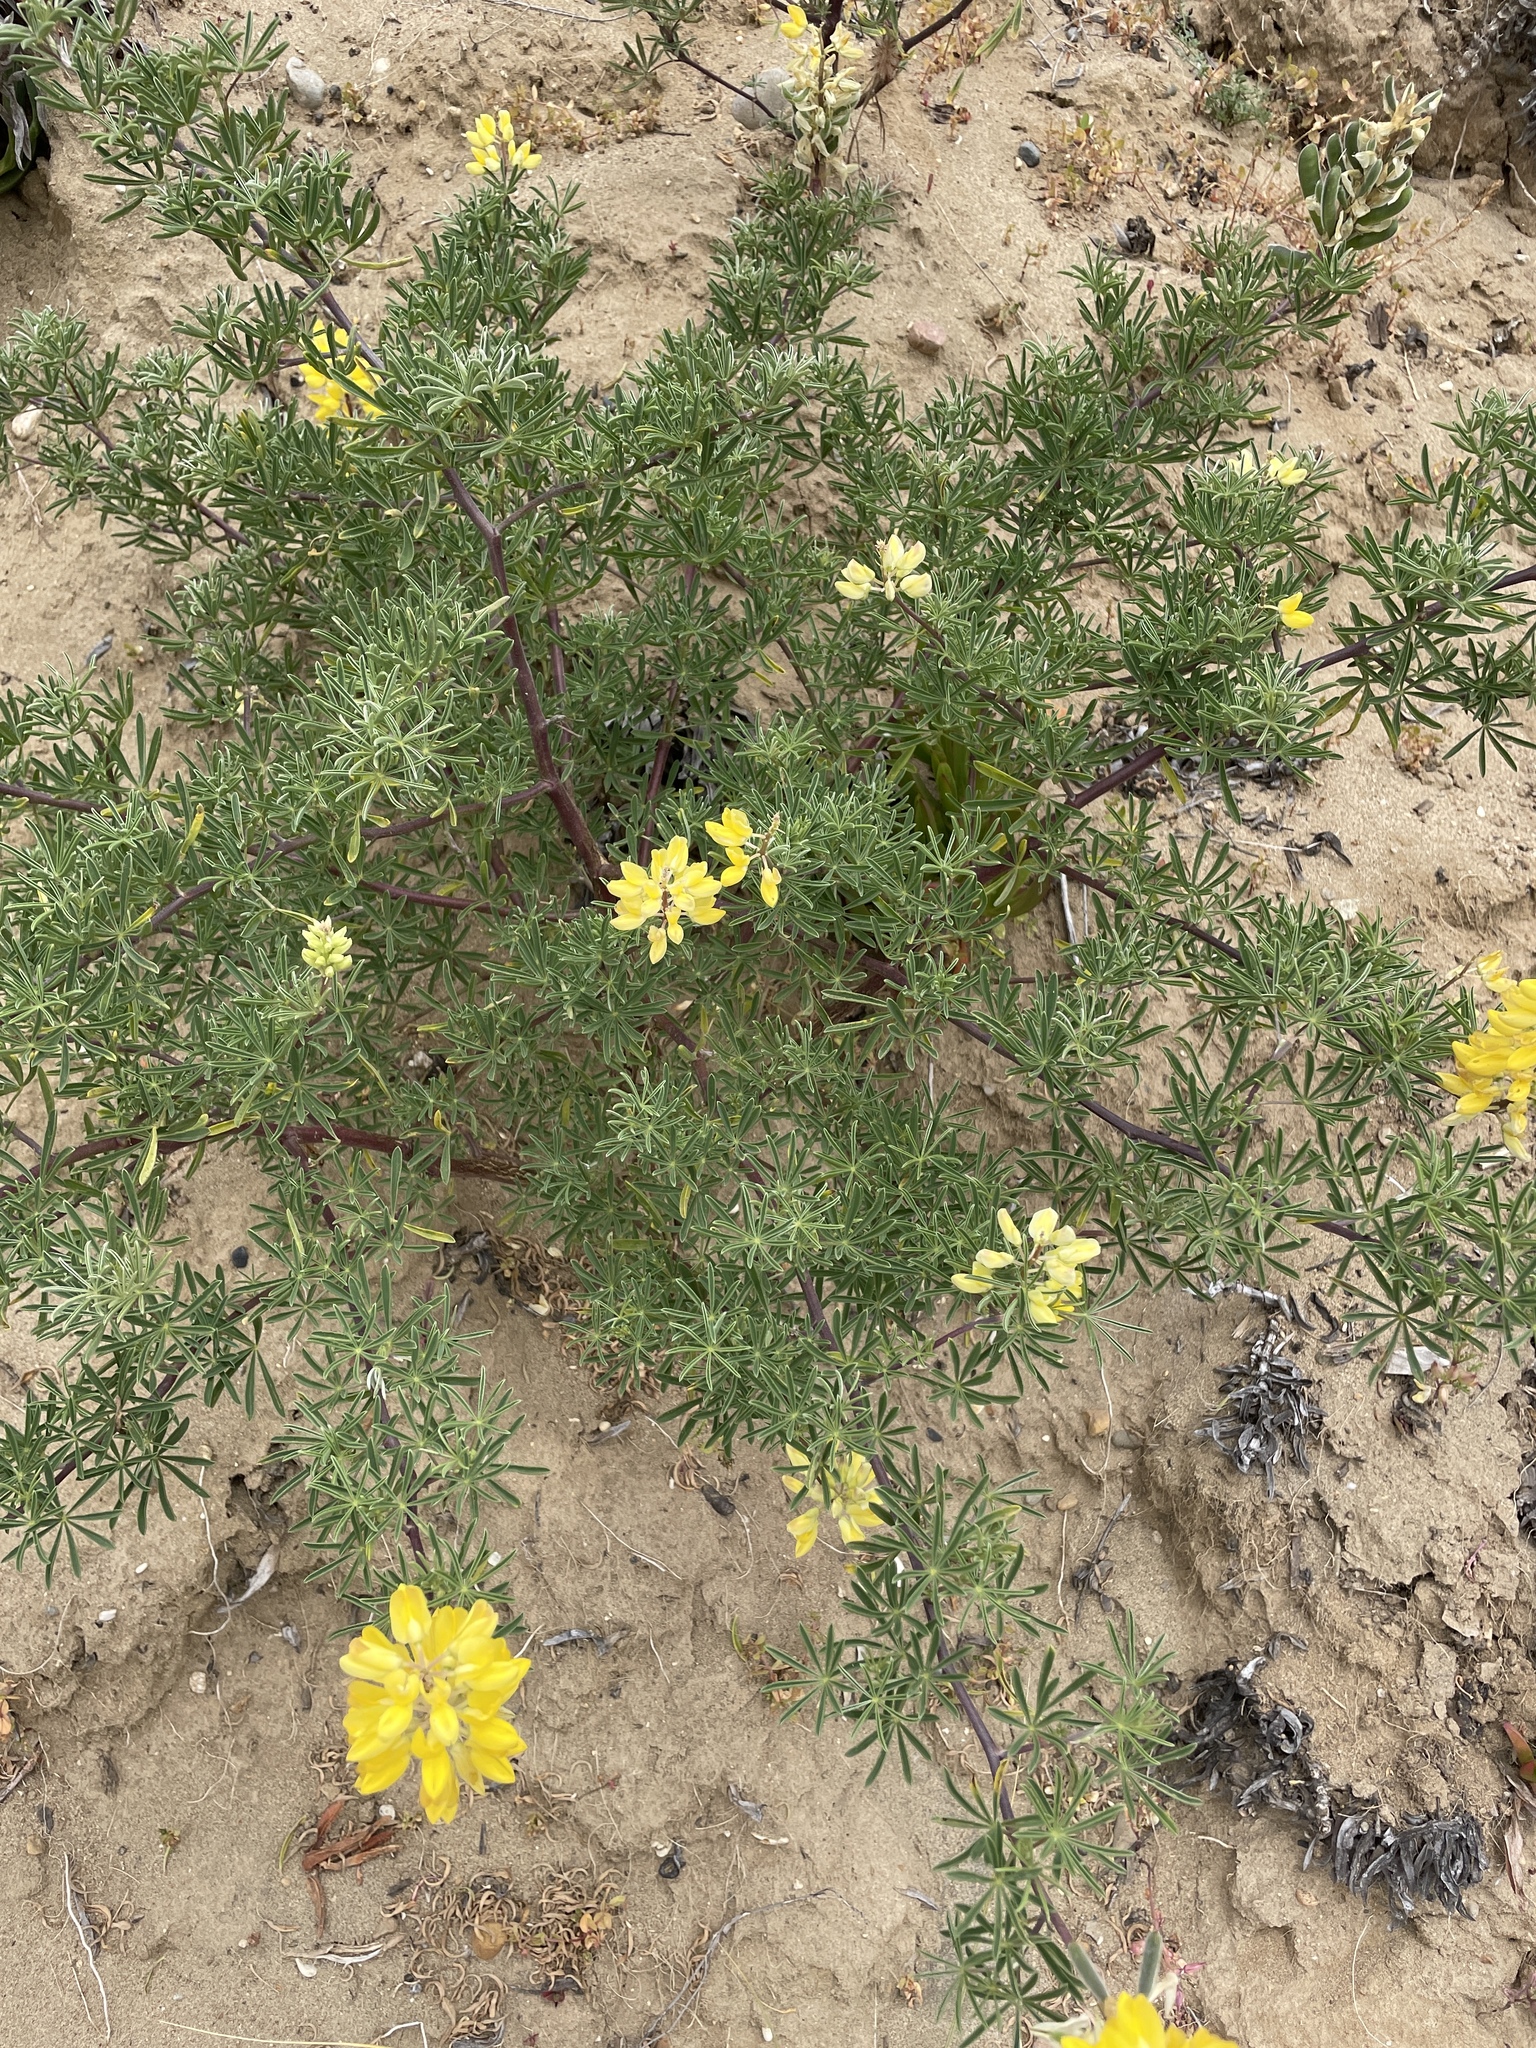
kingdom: Plantae
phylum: Tracheophyta
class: Magnoliopsida
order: Fabales
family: Fabaceae
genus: Lupinus
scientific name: Lupinus arboreus
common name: Yellow bush lupine
